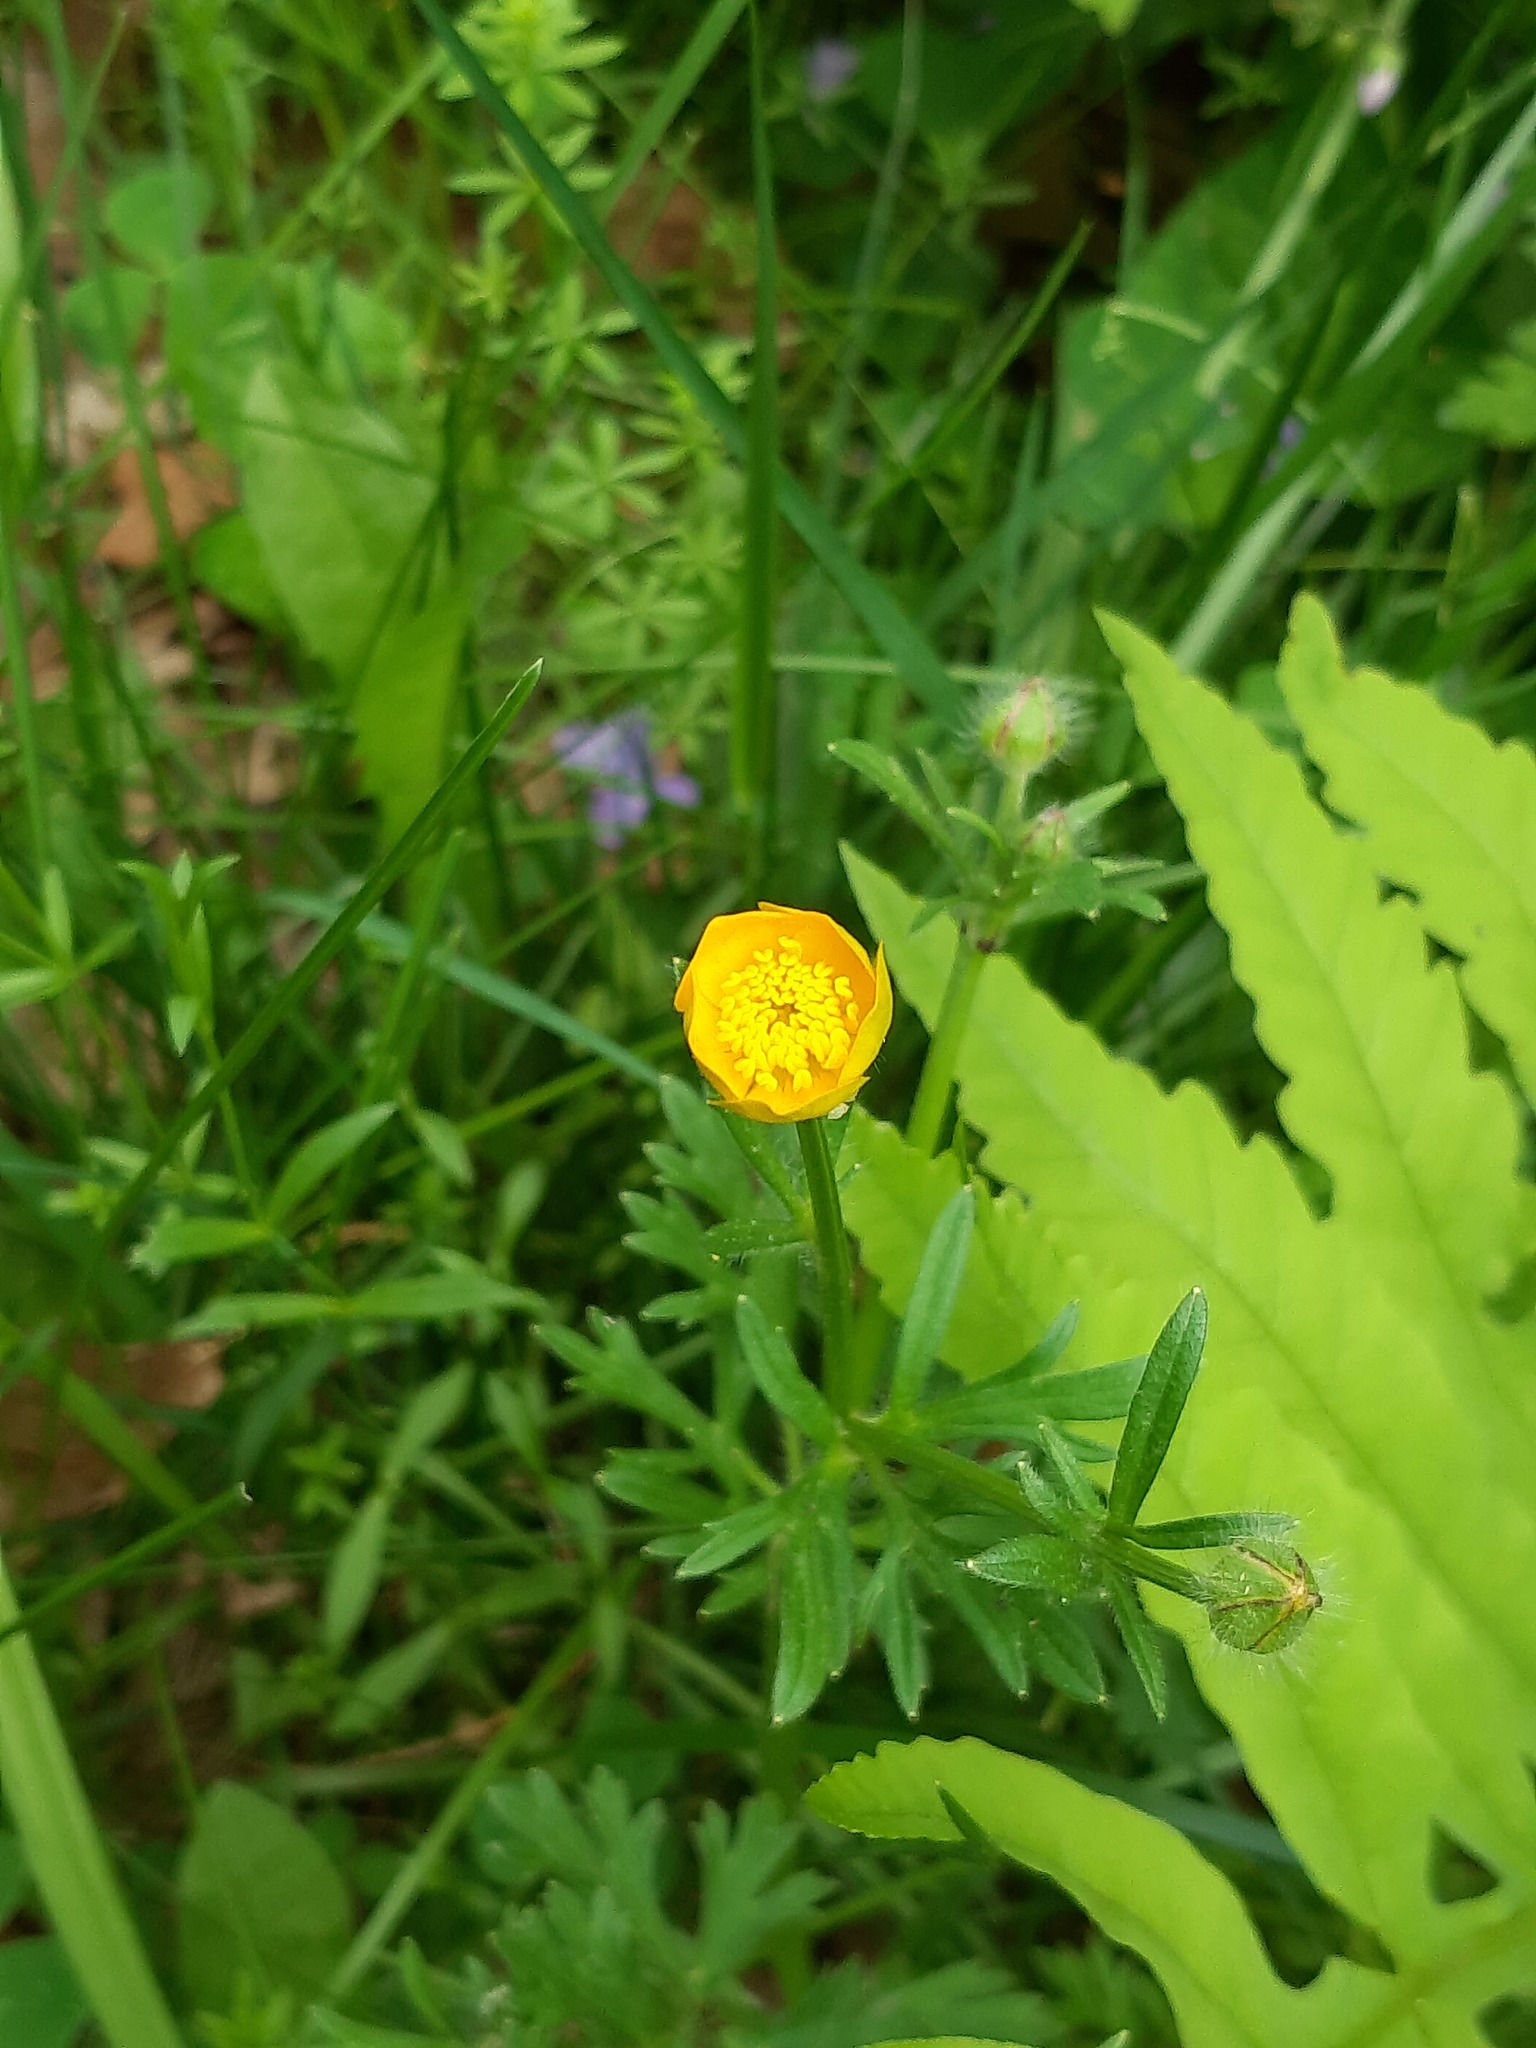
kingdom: Plantae
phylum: Tracheophyta
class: Magnoliopsida
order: Ranunculales
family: Ranunculaceae
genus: Ranunculus
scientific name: Ranunculus acris
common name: Meadow buttercup
